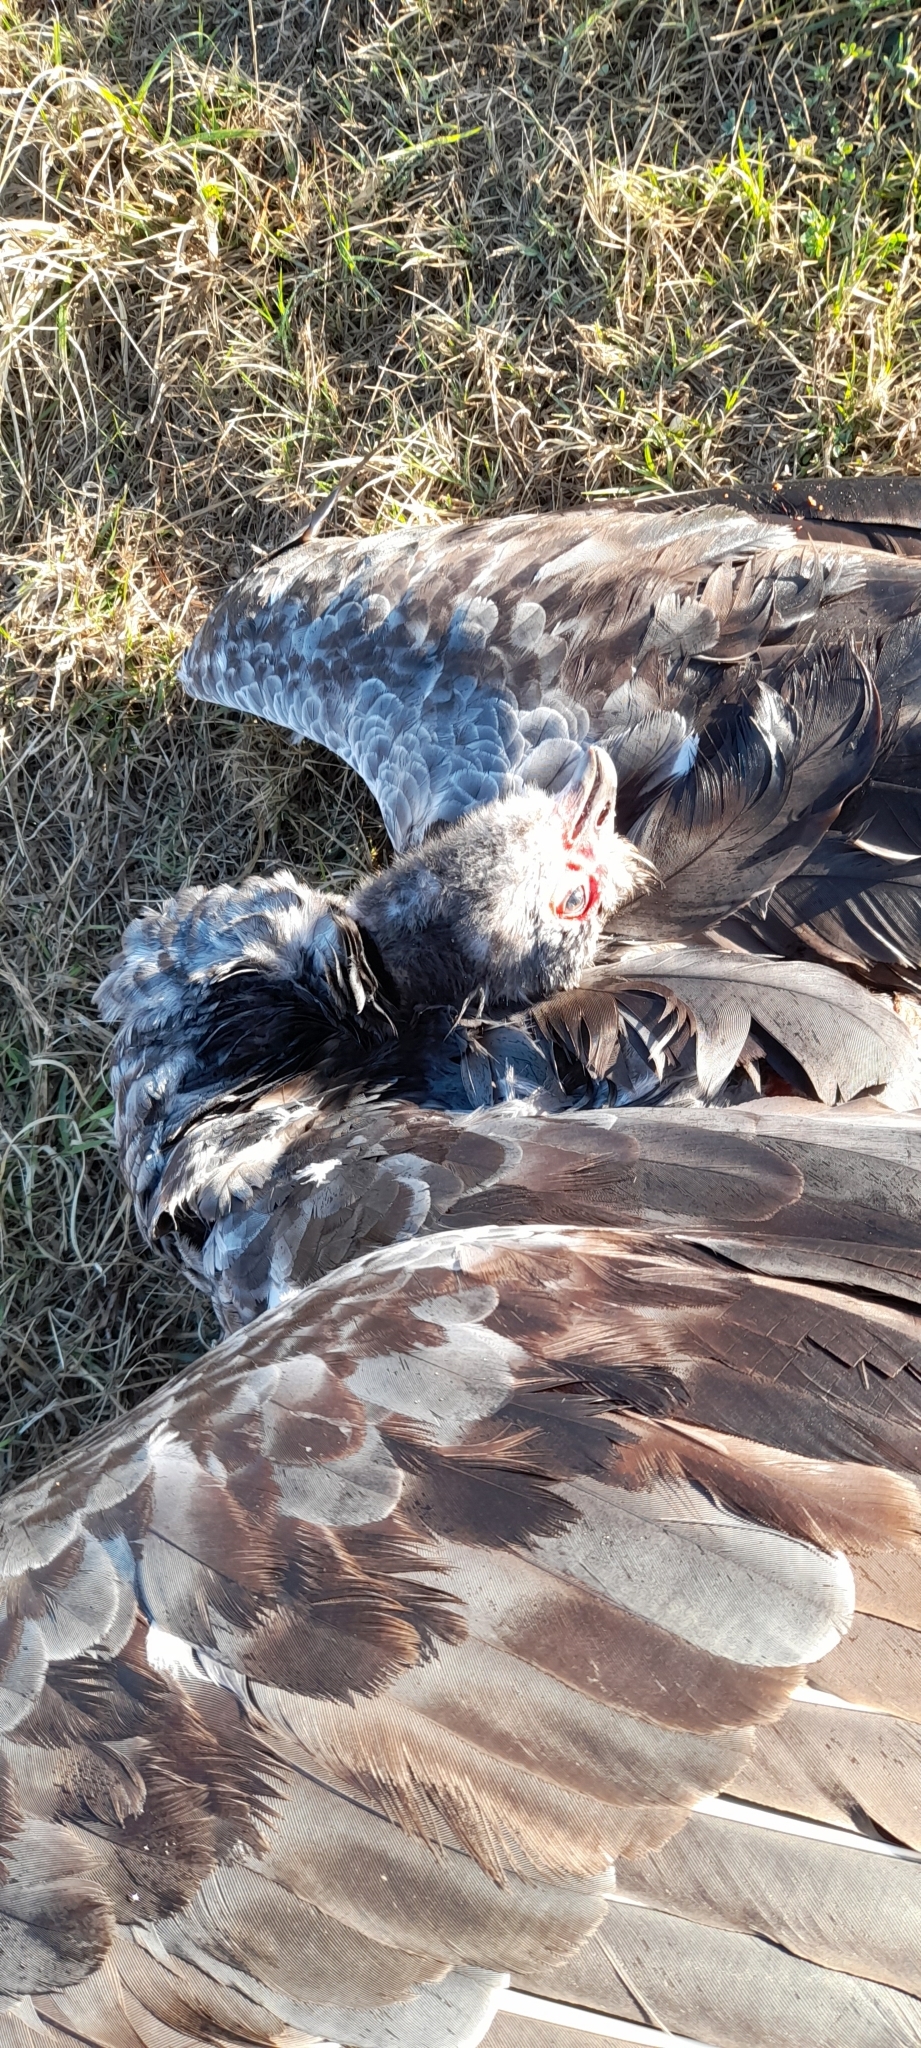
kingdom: Animalia
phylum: Chordata
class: Aves
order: Anseriformes
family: Anhimidae
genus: Chauna
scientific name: Chauna torquata
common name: Southern screamer
